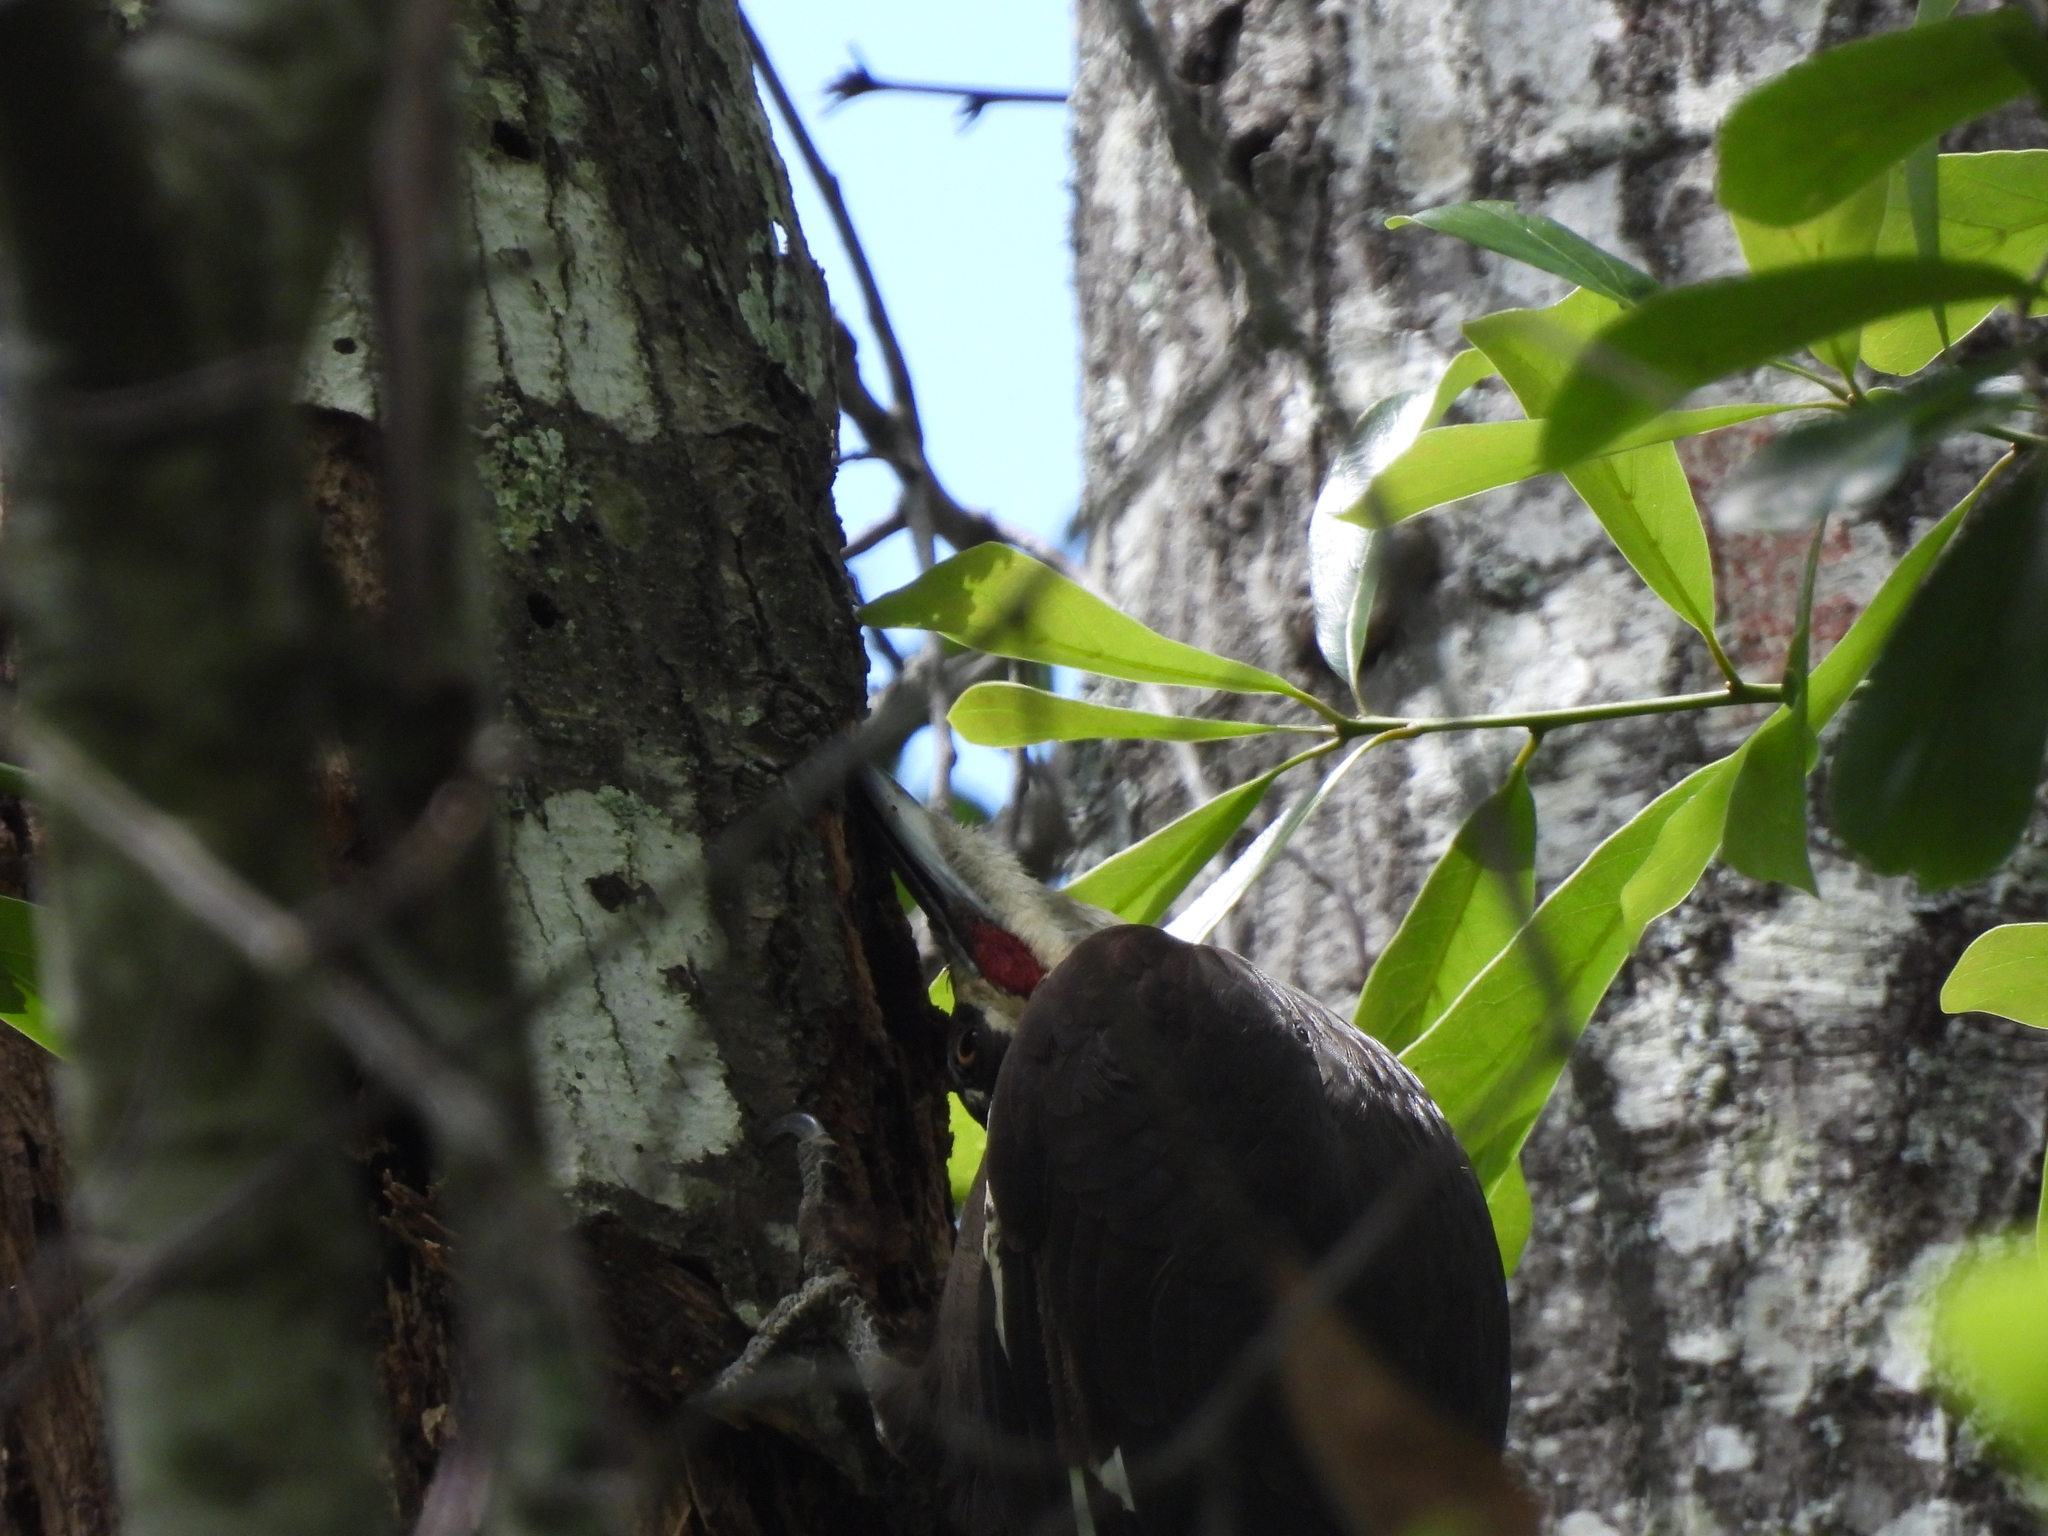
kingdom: Animalia
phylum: Chordata
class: Aves
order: Piciformes
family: Picidae
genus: Dryocopus
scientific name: Dryocopus pileatus
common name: Pileated woodpecker
